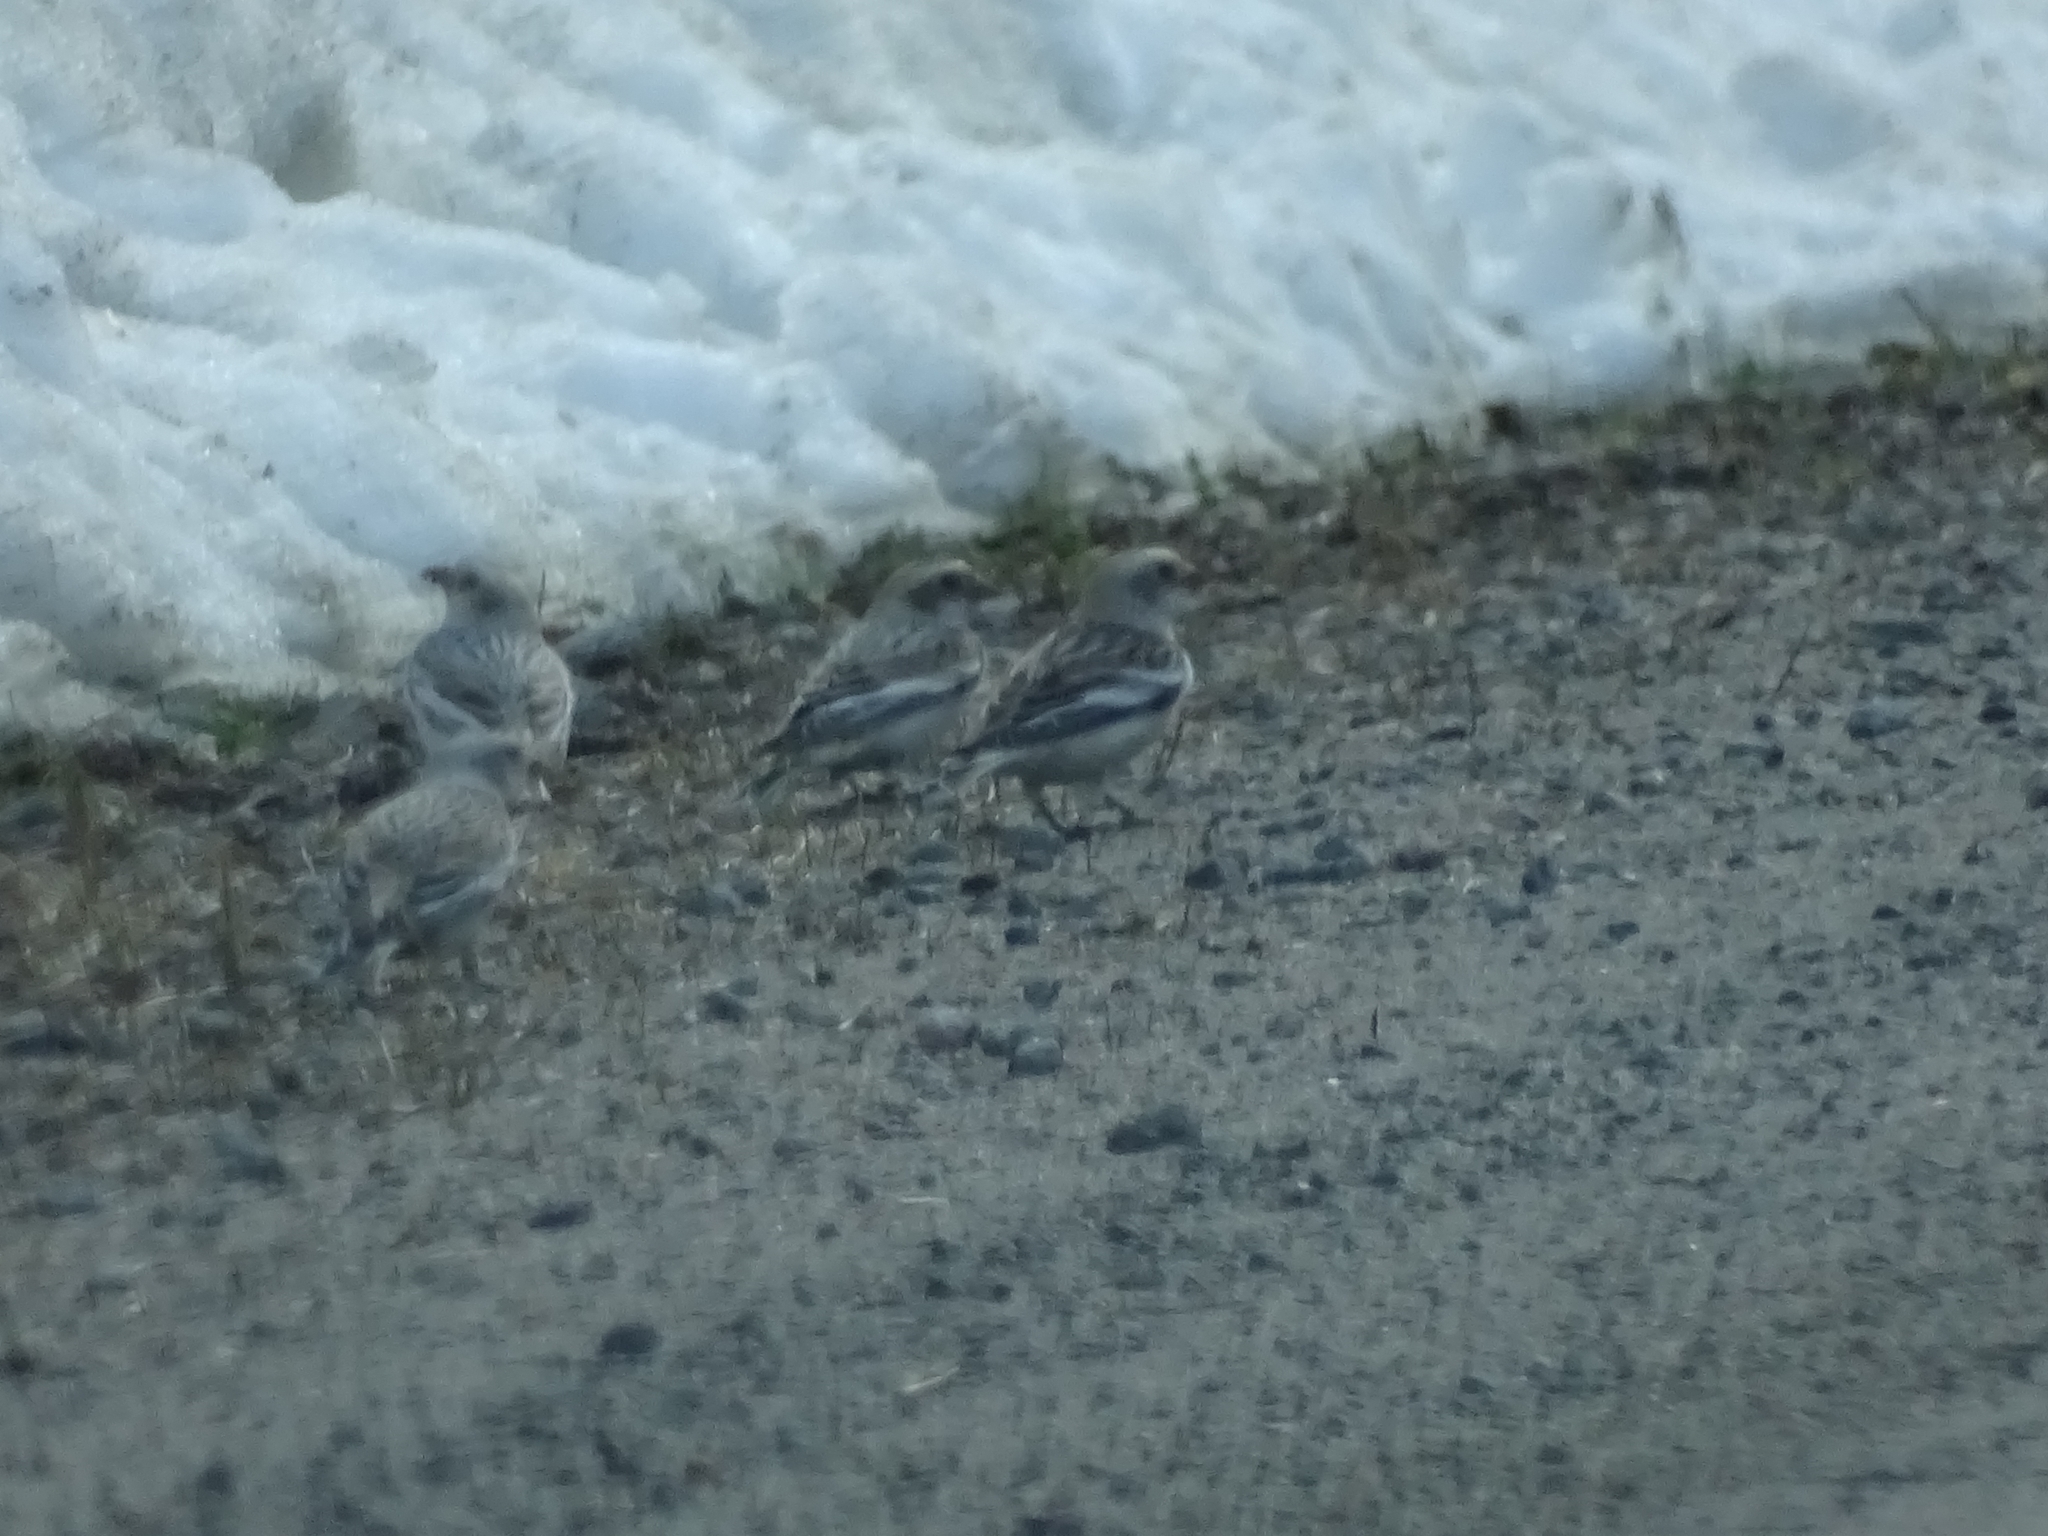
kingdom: Animalia
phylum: Chordata
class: Aves
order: Passeriformes
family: Calcariidae
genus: Plectrophenax
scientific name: Plectrophenax nivalis
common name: Snow bunting
